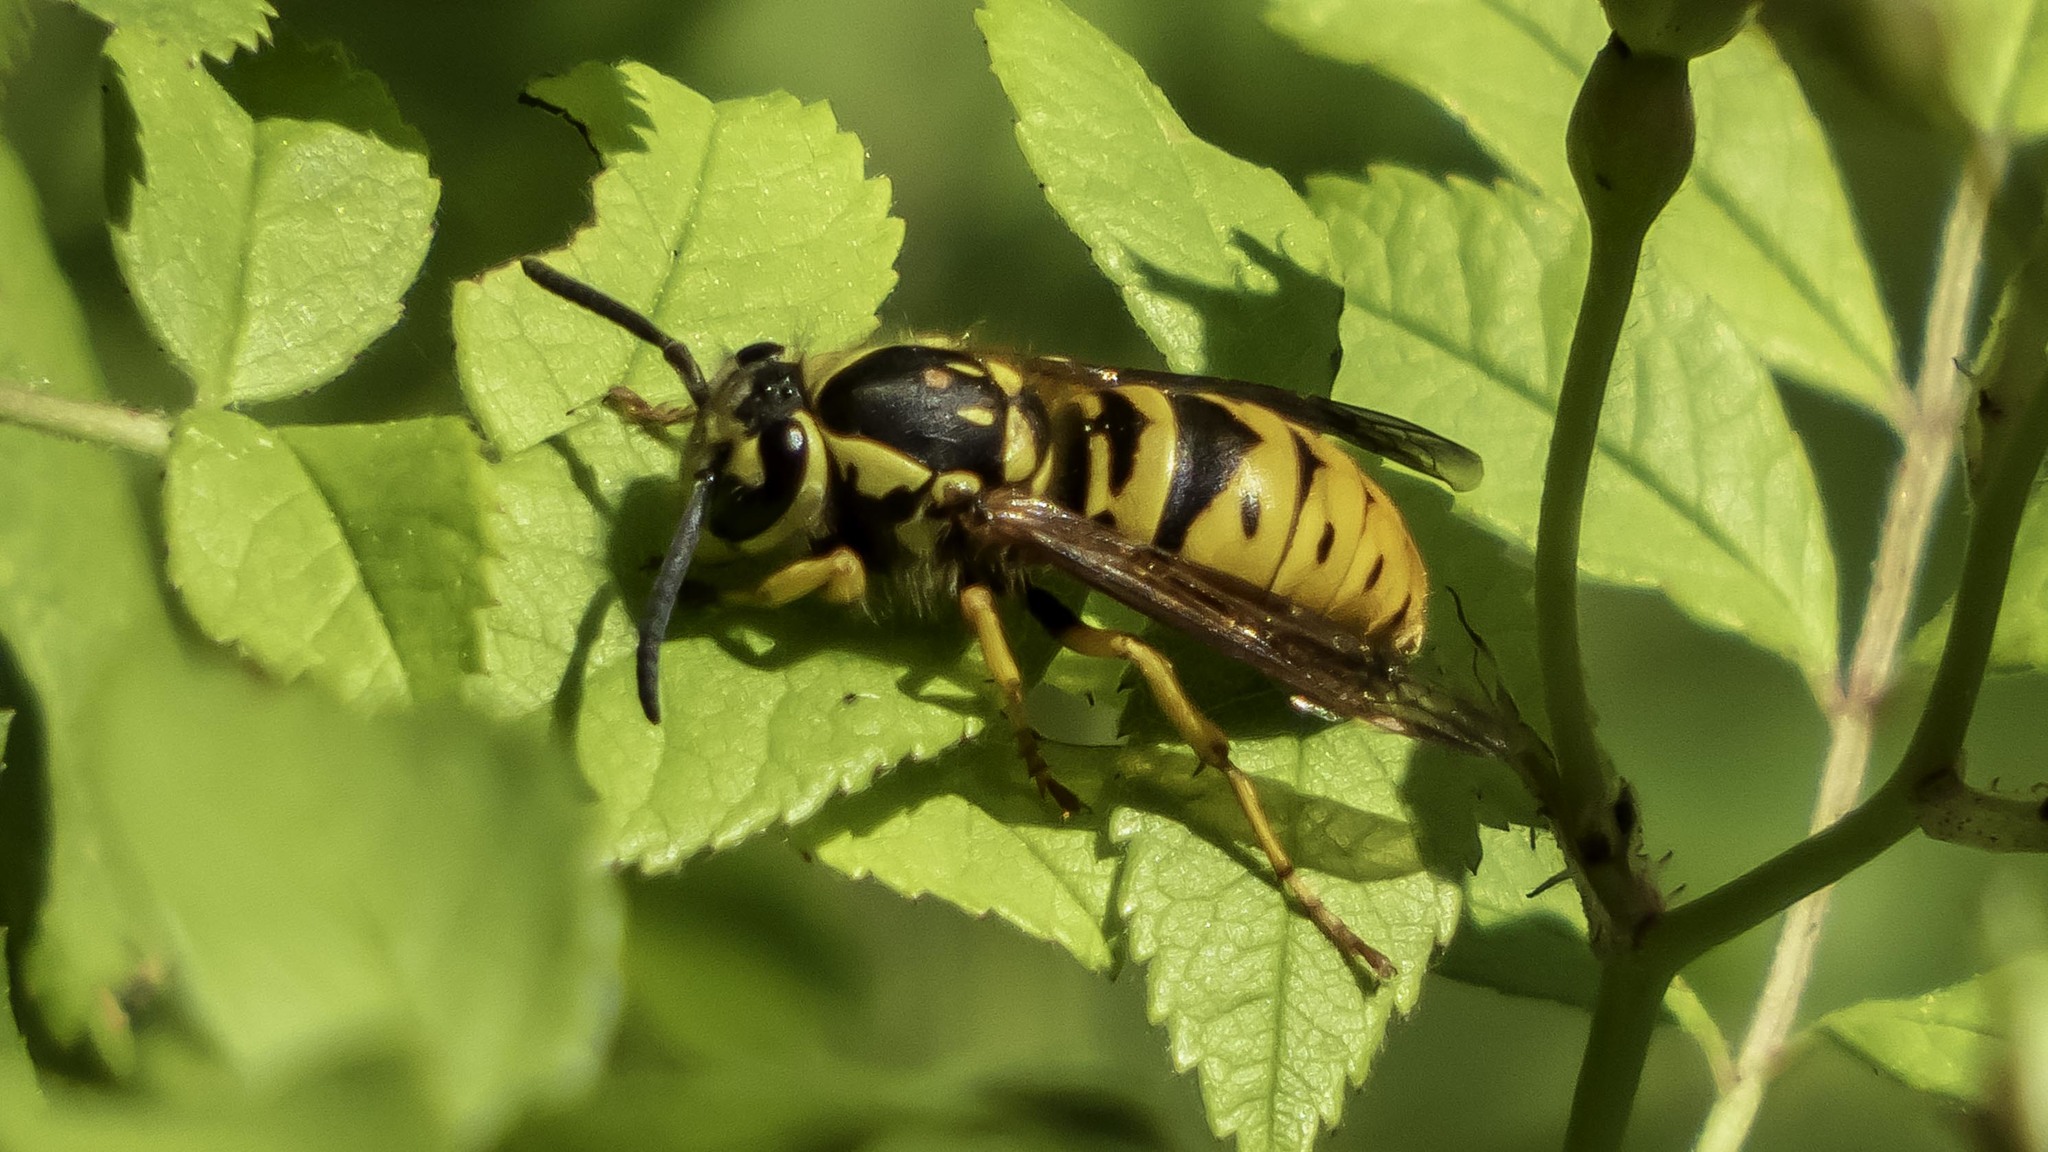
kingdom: Animalia
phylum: Arthropoda
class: Insecta
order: Hymenoptera
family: Vespidae
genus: Vespula
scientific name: Vespula maculifrons
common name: Eastern yellowjacket
